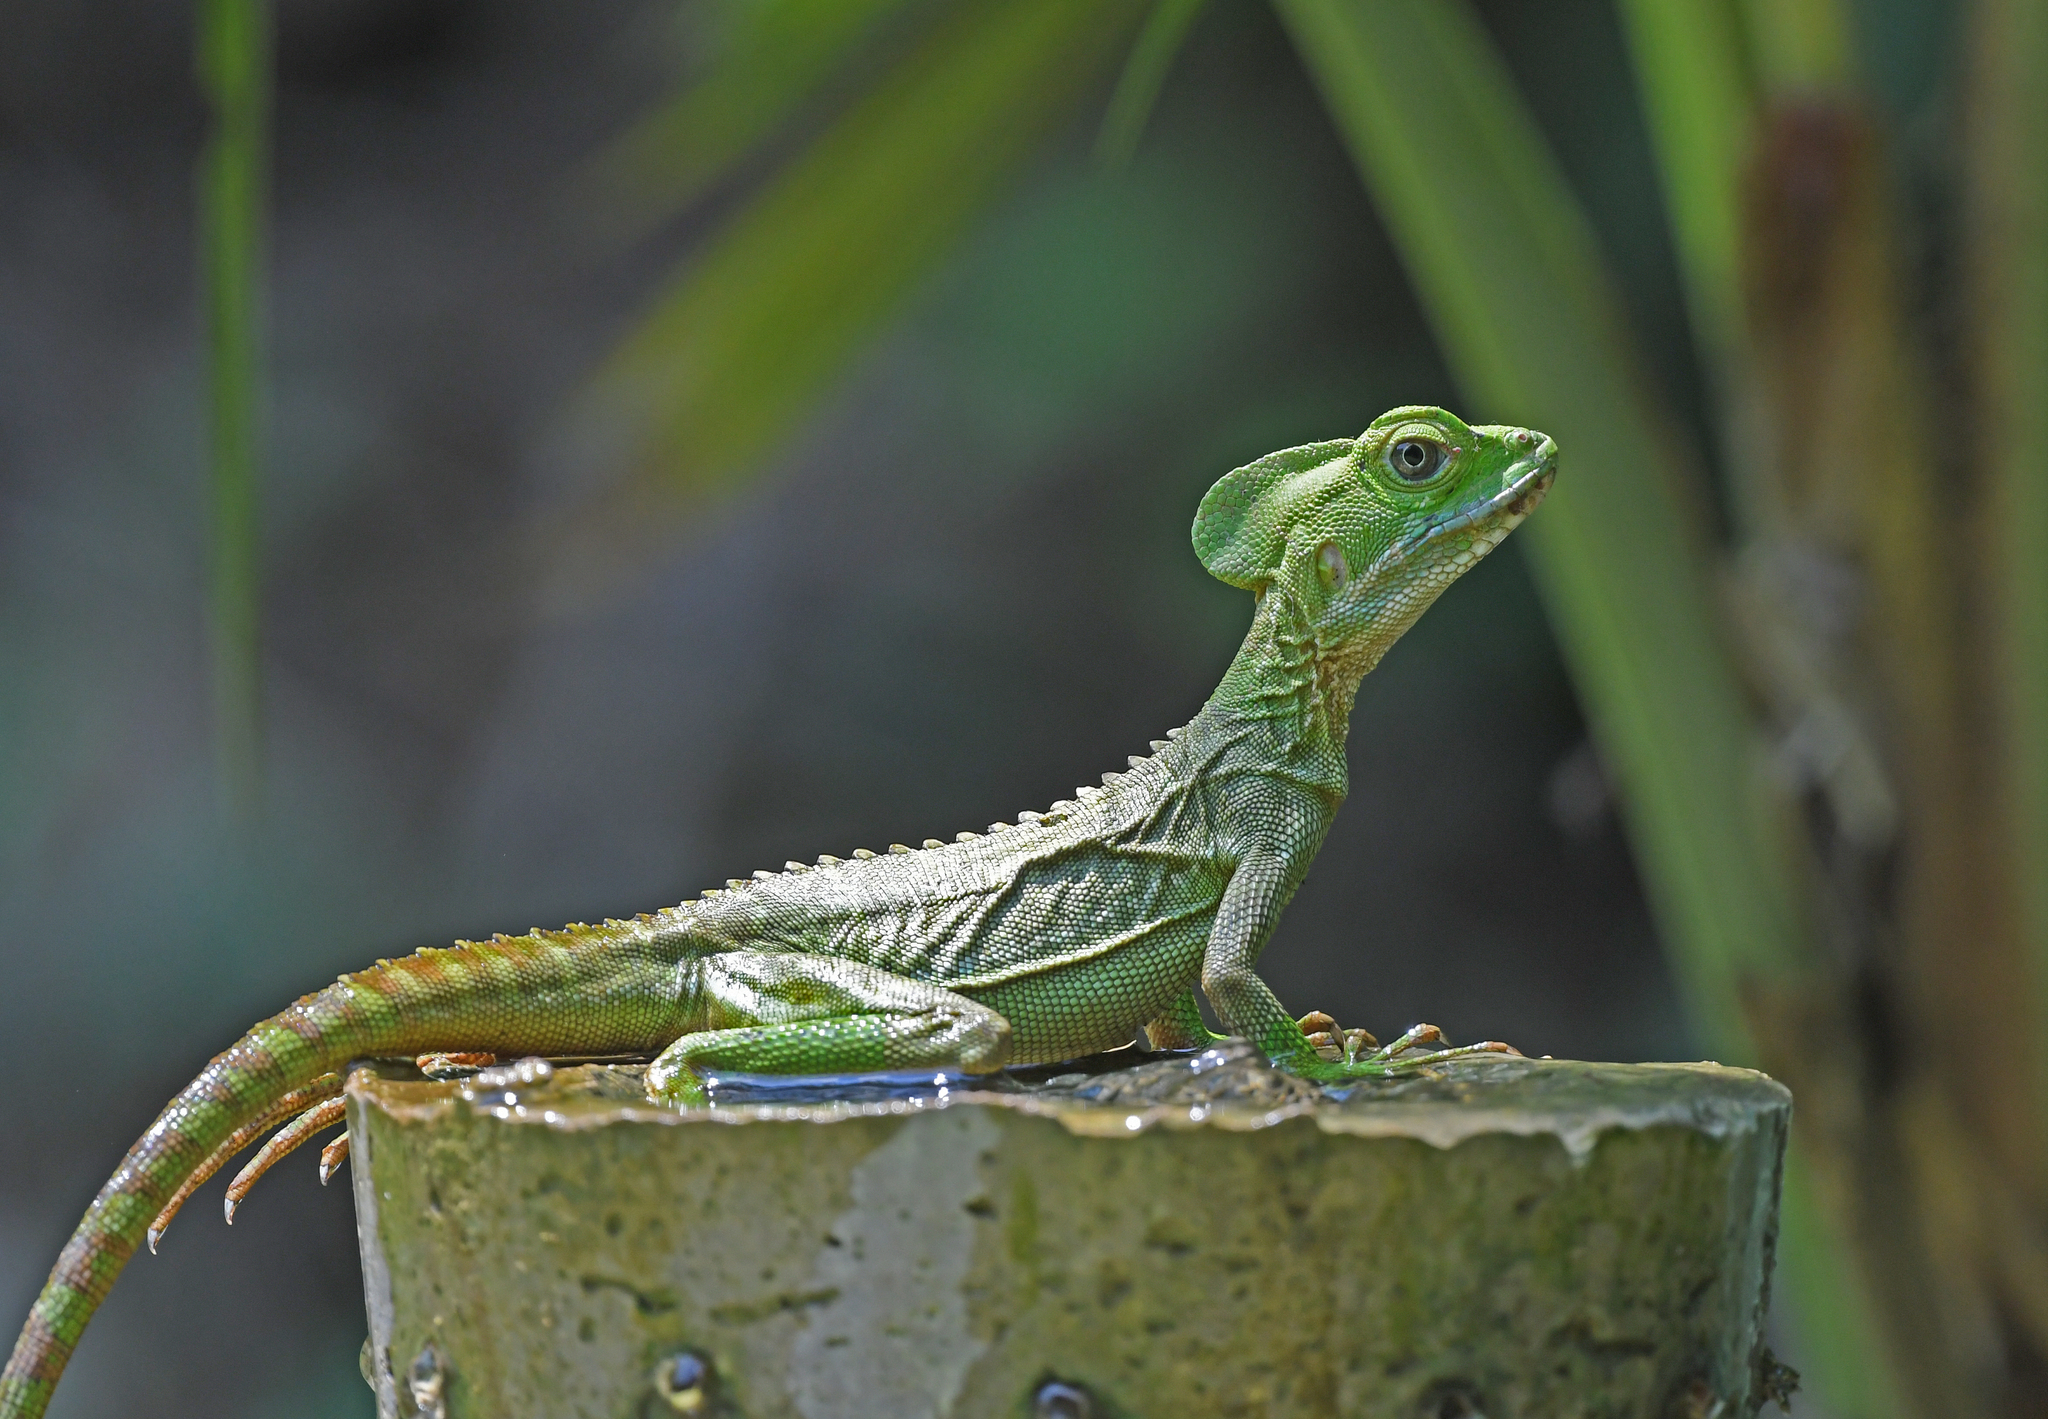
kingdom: Animalia
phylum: Chordata
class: Squamata
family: Corytophanidae
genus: Basiliscus
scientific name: Basiliscus galeritus
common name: Western basilisk
